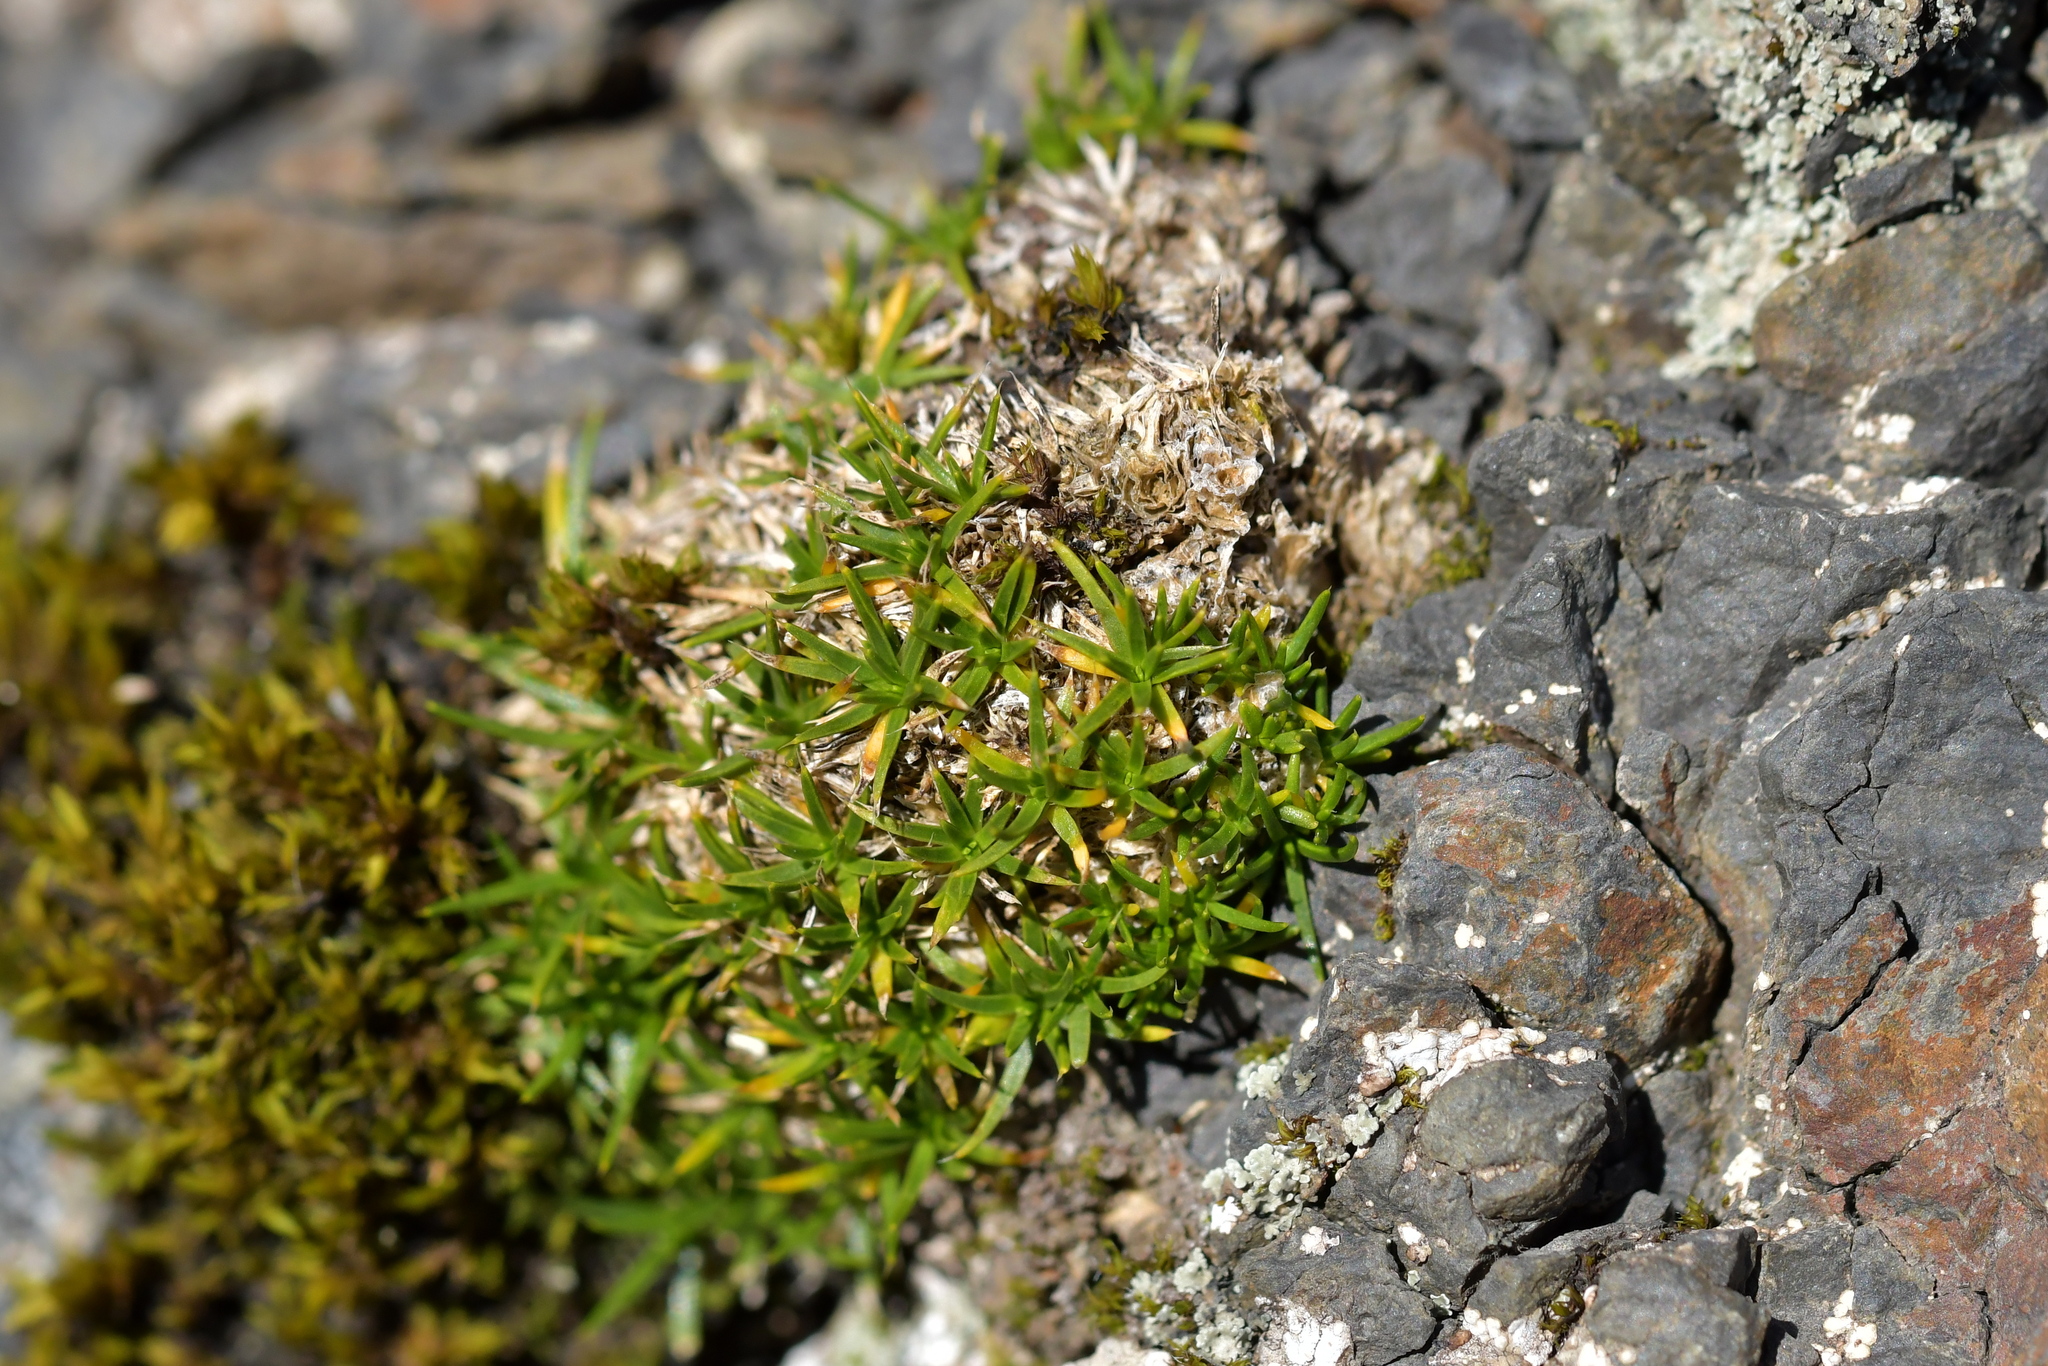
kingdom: Plantae
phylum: Tracheophyta
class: Magnoliopsida
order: Caryophyllales
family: Caryophyllaceae
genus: Colobanthus
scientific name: Colobanthus affinis
